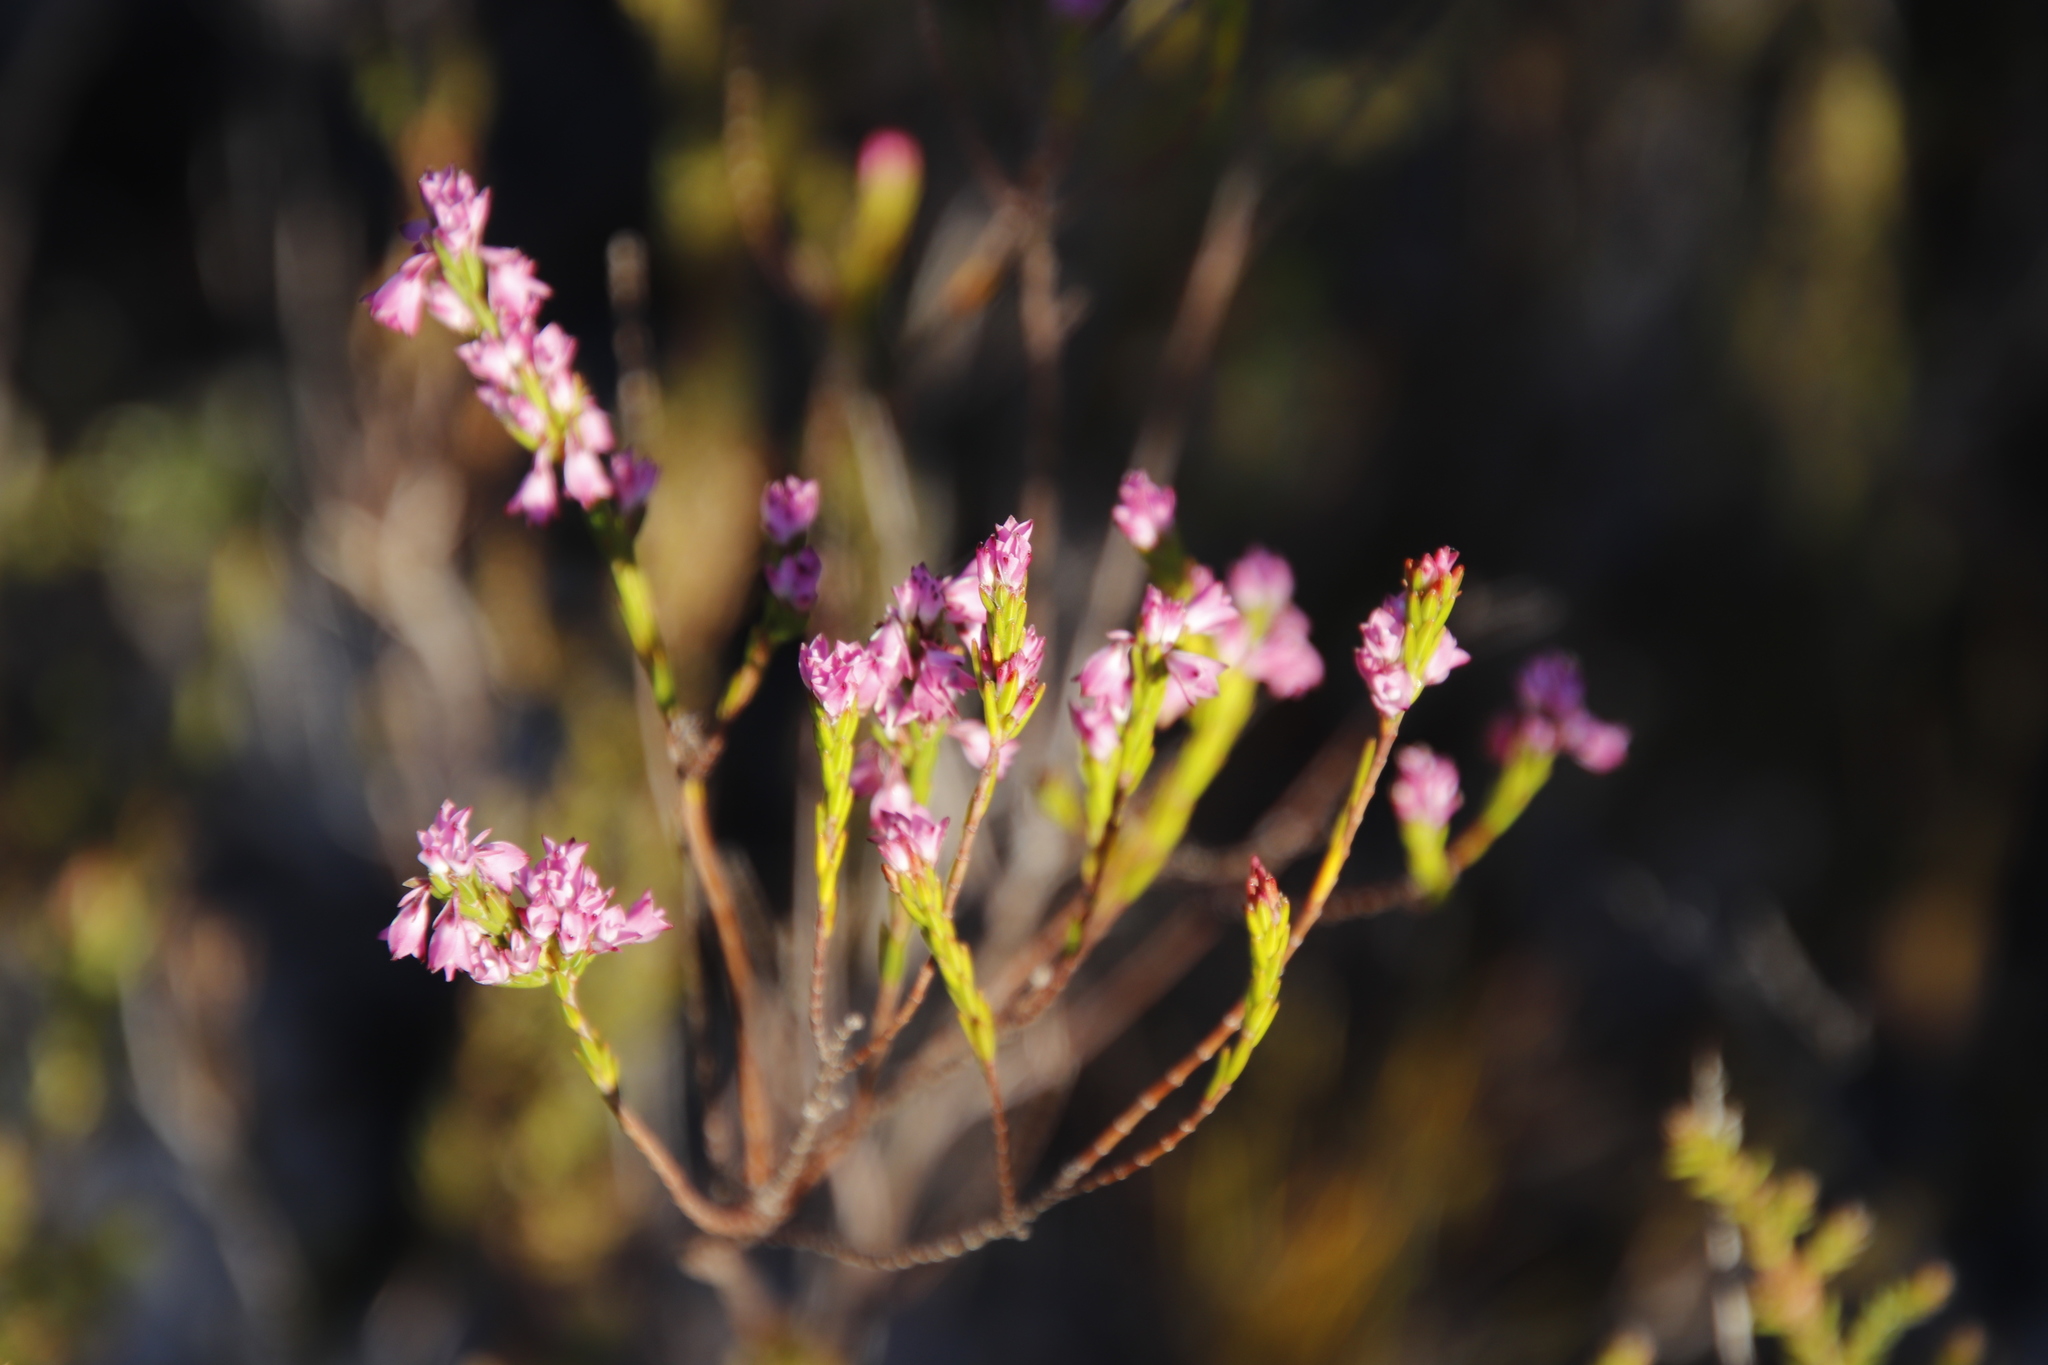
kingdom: Plantae
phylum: Tracheophyta
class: Magnoliopsida
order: Ericales
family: Ericaceae
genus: Erica
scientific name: Erica corifolia
